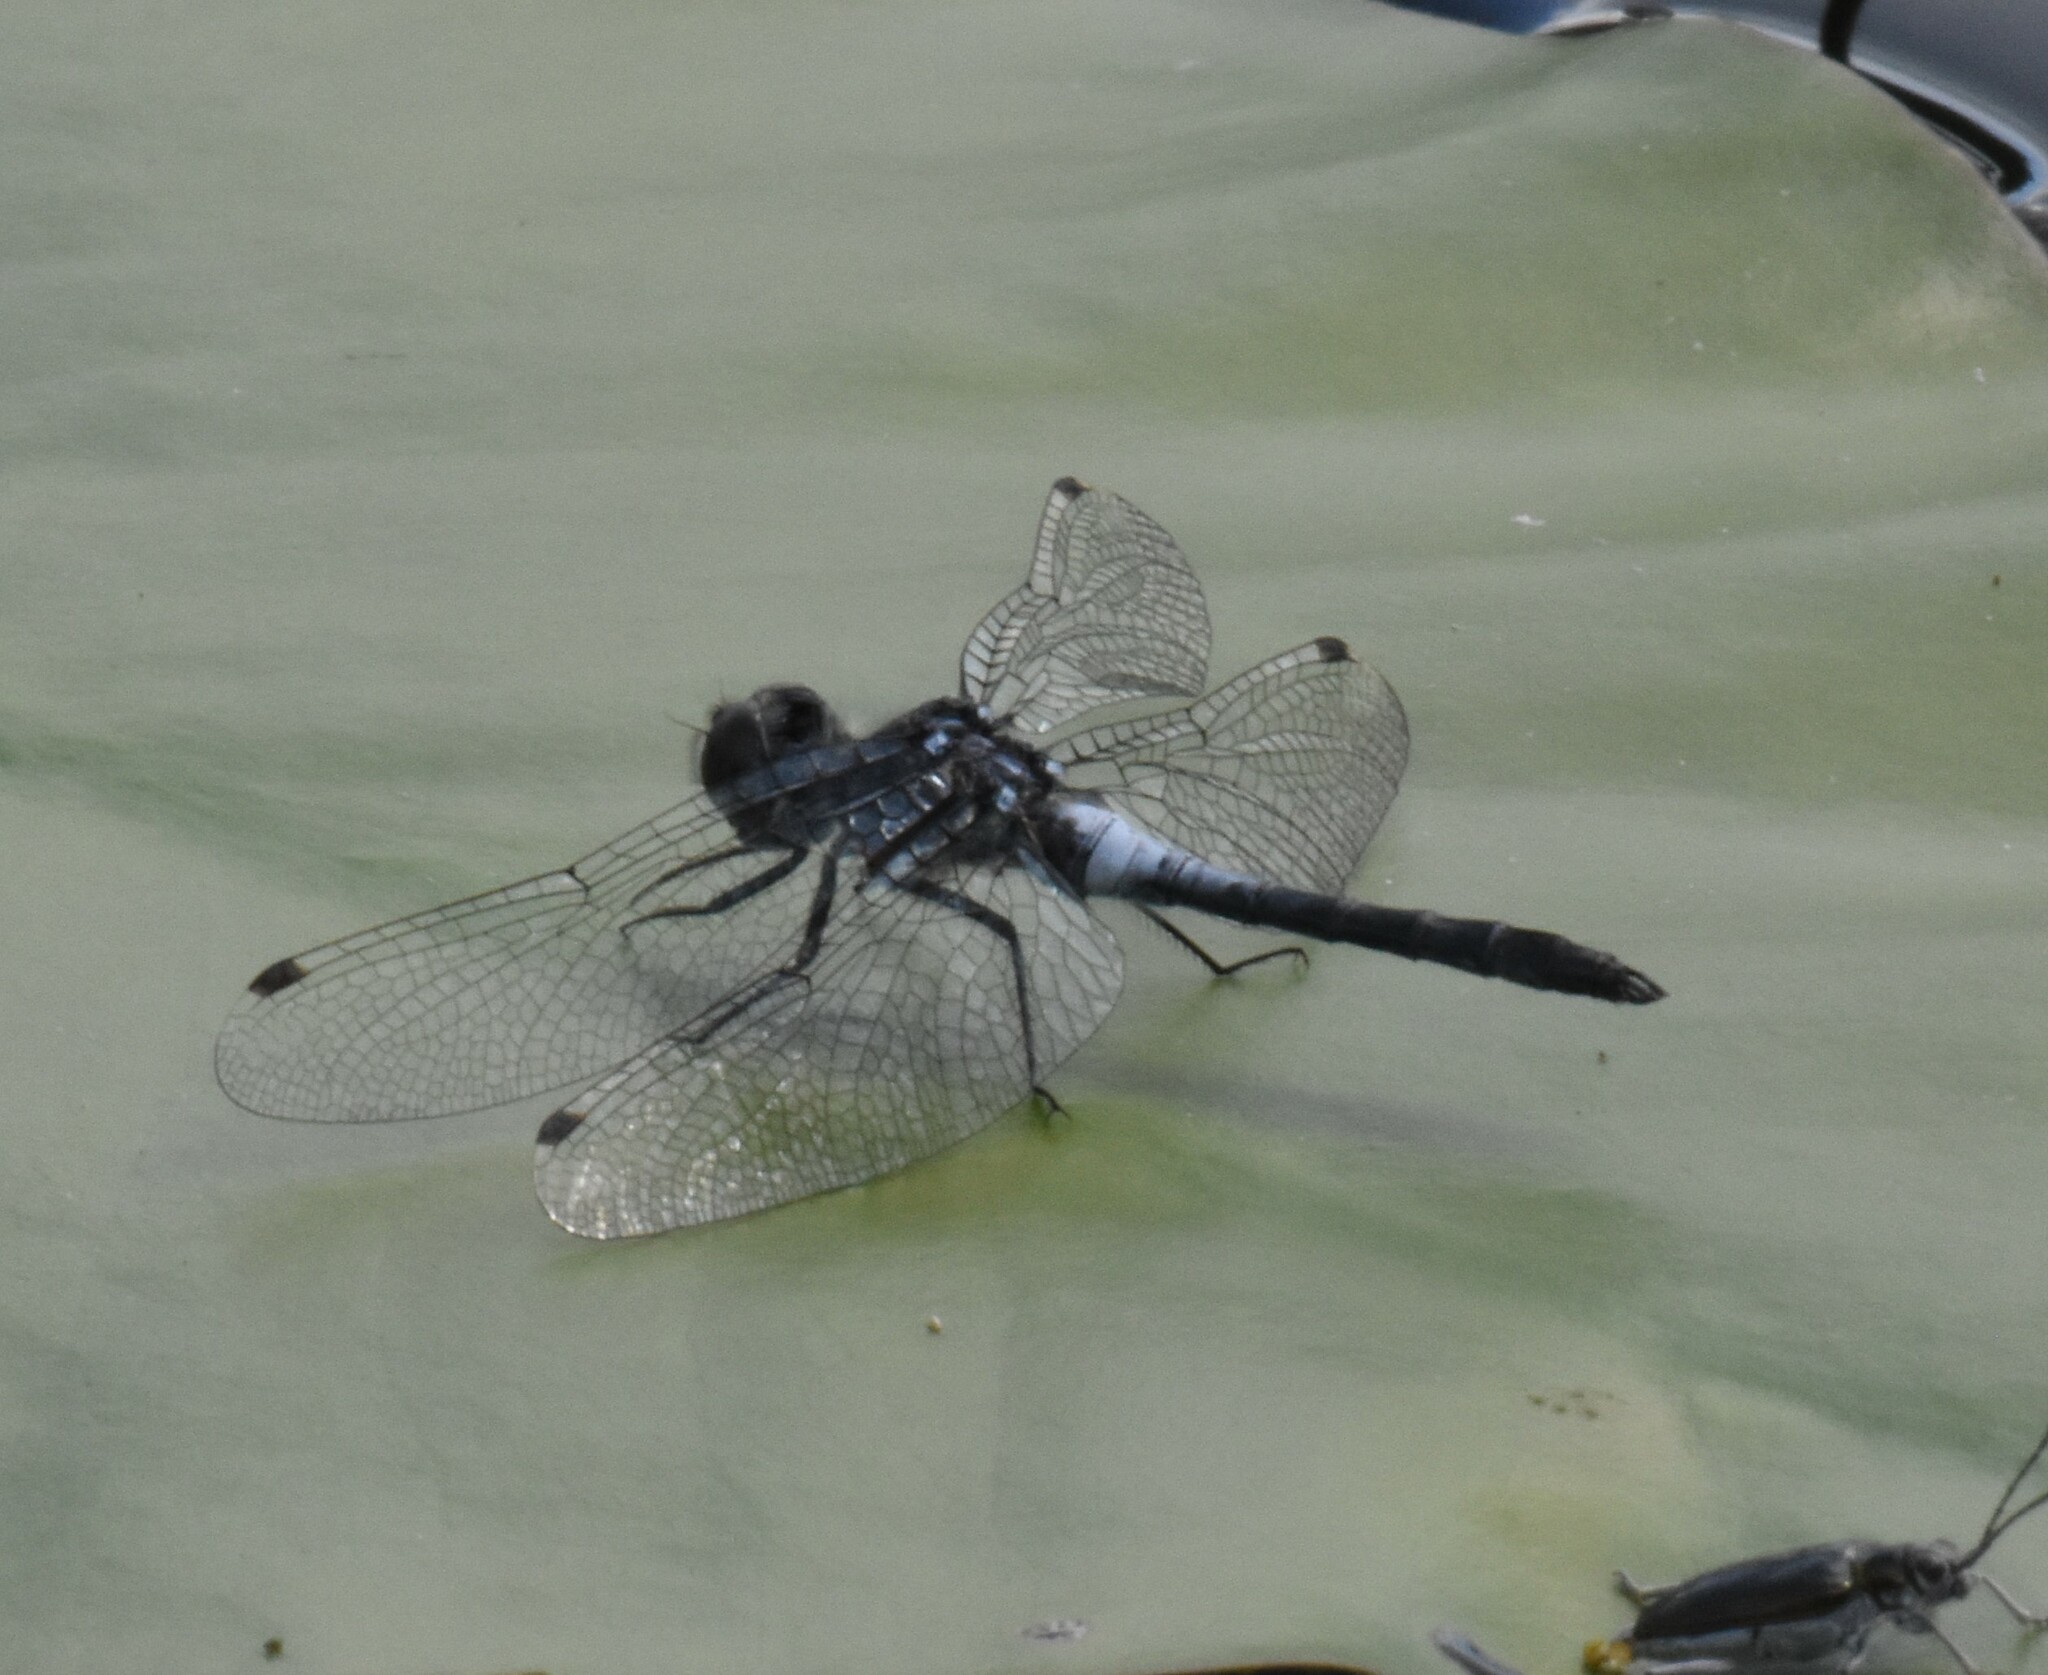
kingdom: Animalia
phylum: Arthropoda
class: Insecta
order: Odonata
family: Libellulidae
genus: Leucorrhinia
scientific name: Leucorrhinia frigida
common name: Frosted whiteface
